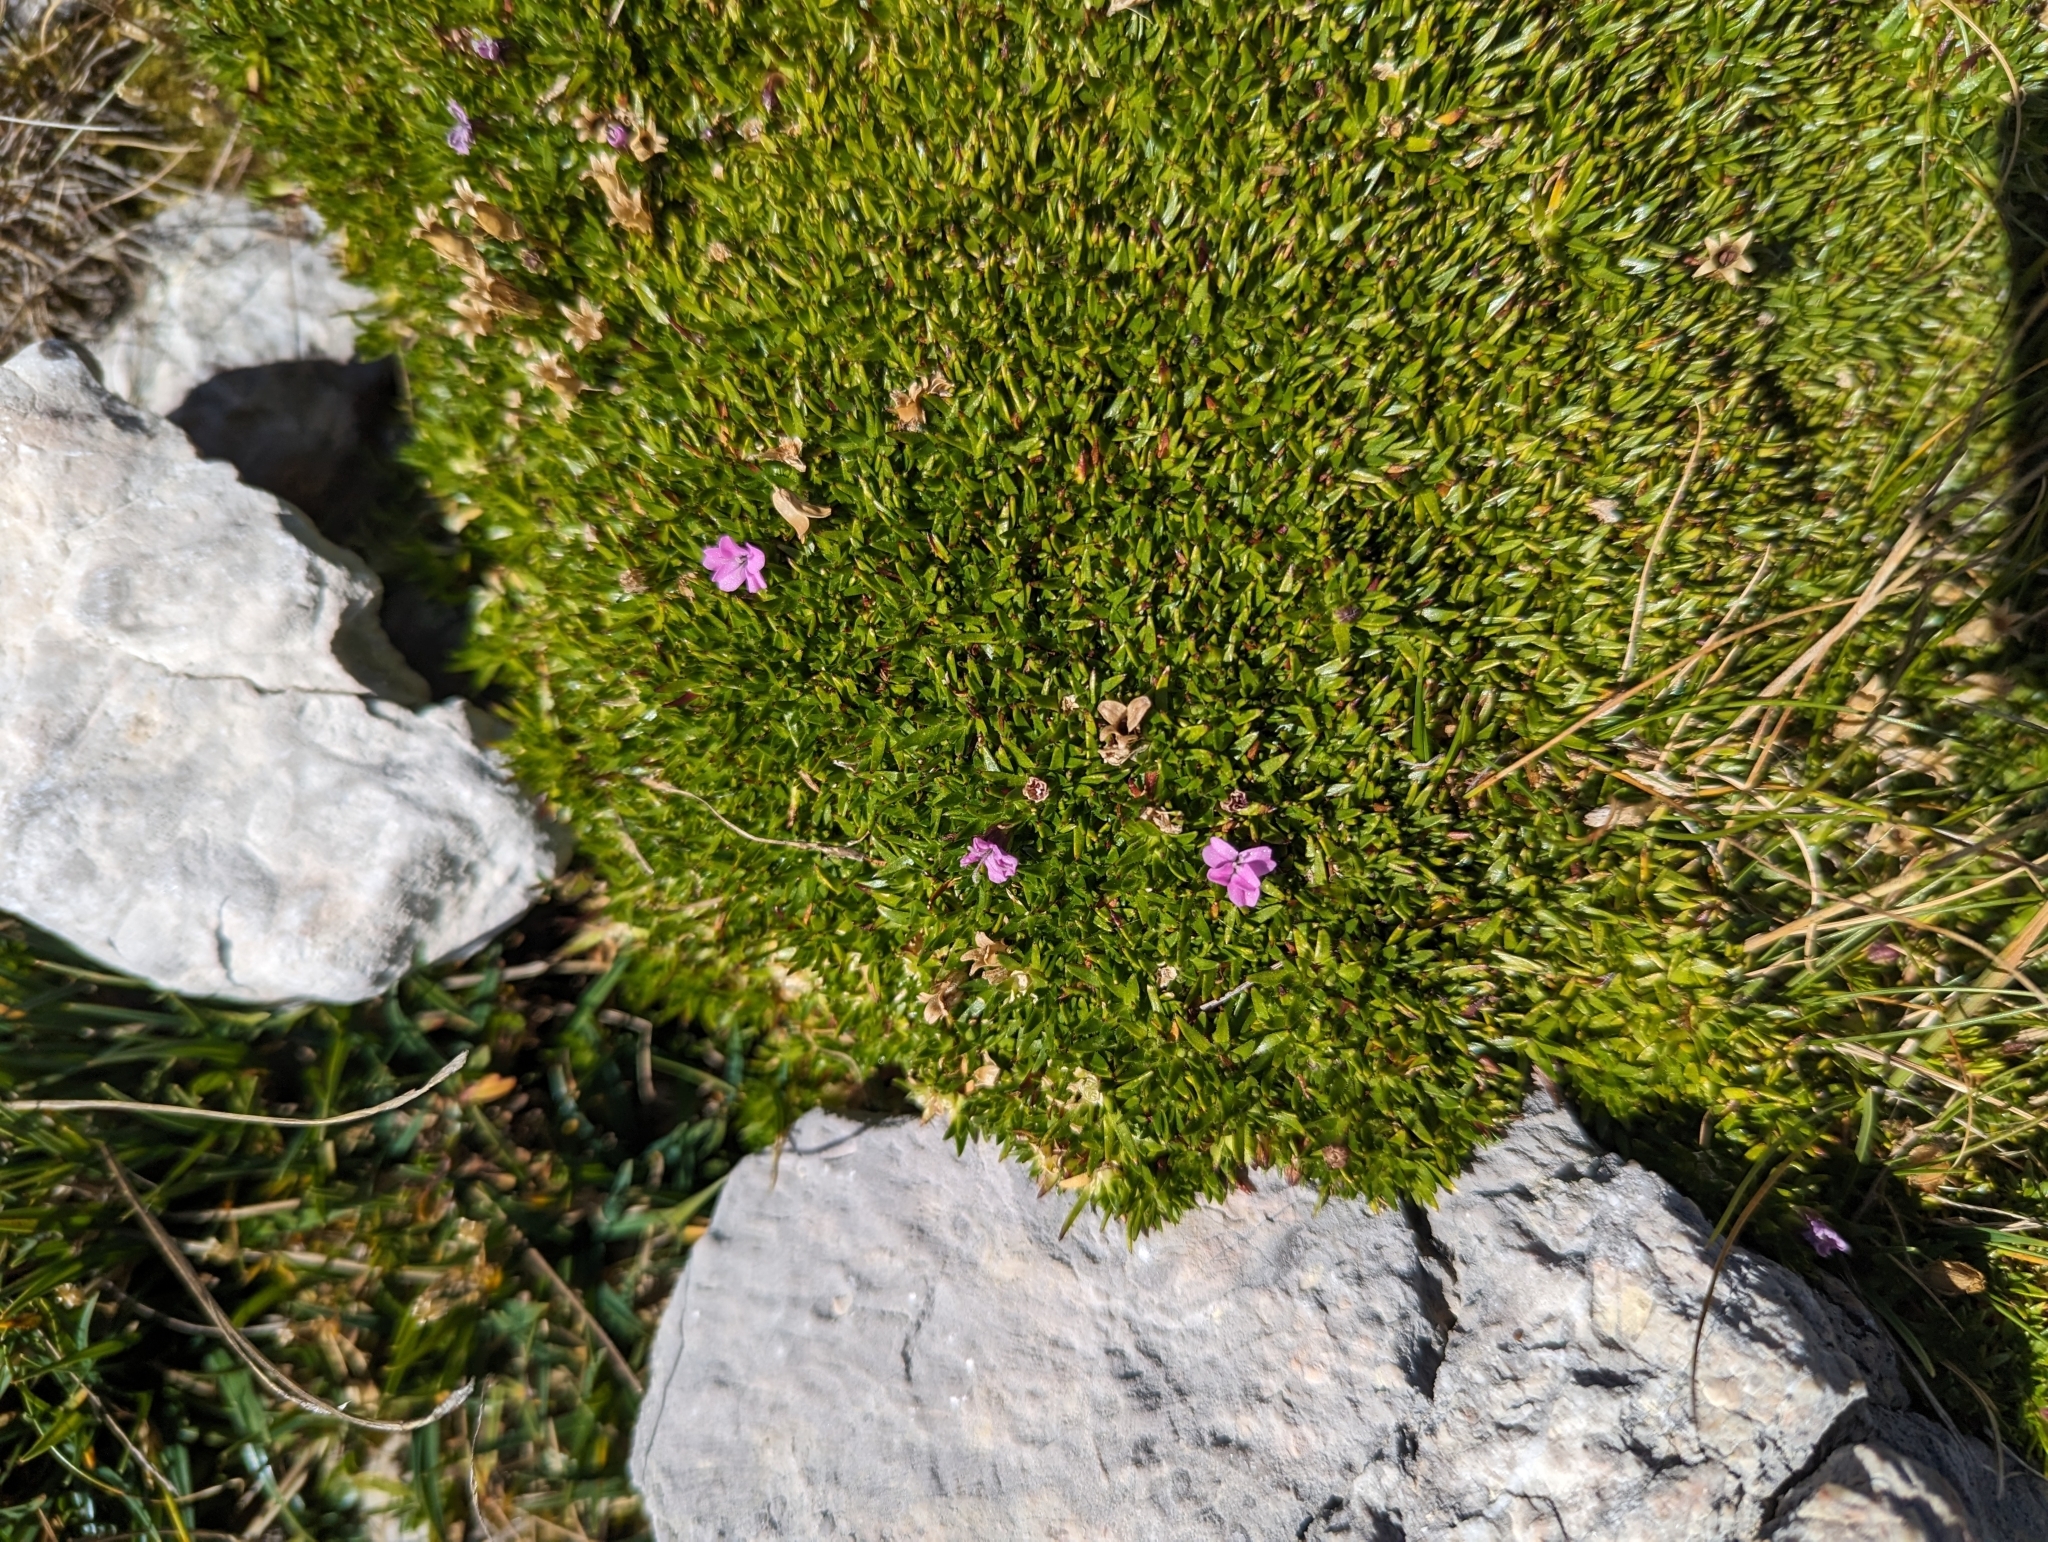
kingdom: Plantae
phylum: Tracheophyta
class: Magnoliopsida
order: Caryophyllales
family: Caryophyllaceae
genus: Silene
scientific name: Silene acaulis
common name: Moss campion
